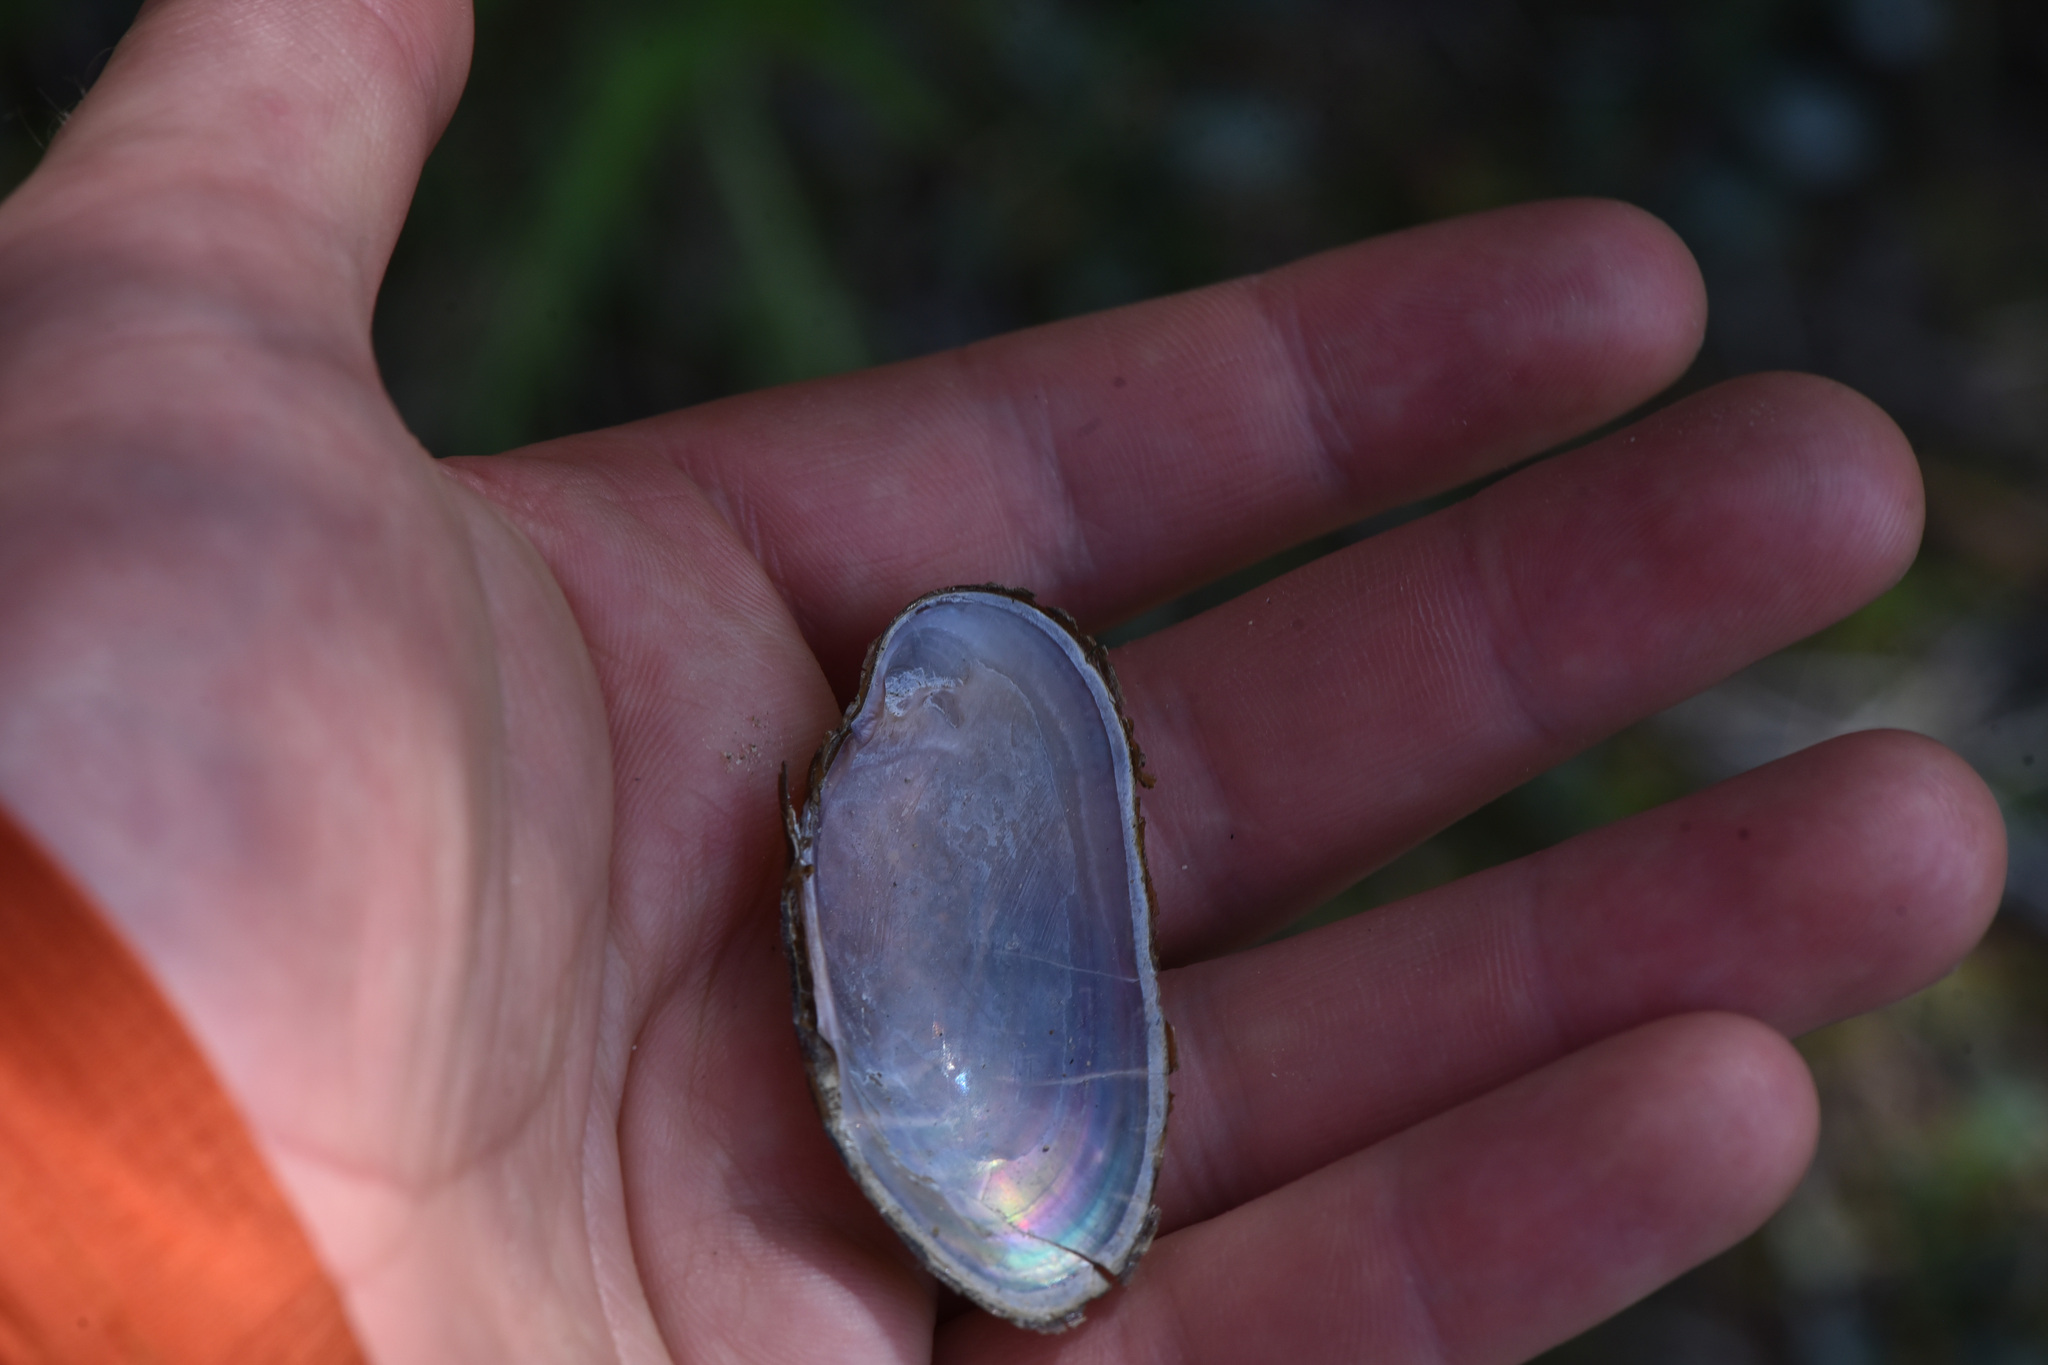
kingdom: Animalia
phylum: Mollusca
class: Bivalvia
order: Unionida
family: Margaritiferidae
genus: Margaritifera
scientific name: Margaritifera falcata
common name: Western pearlshell
